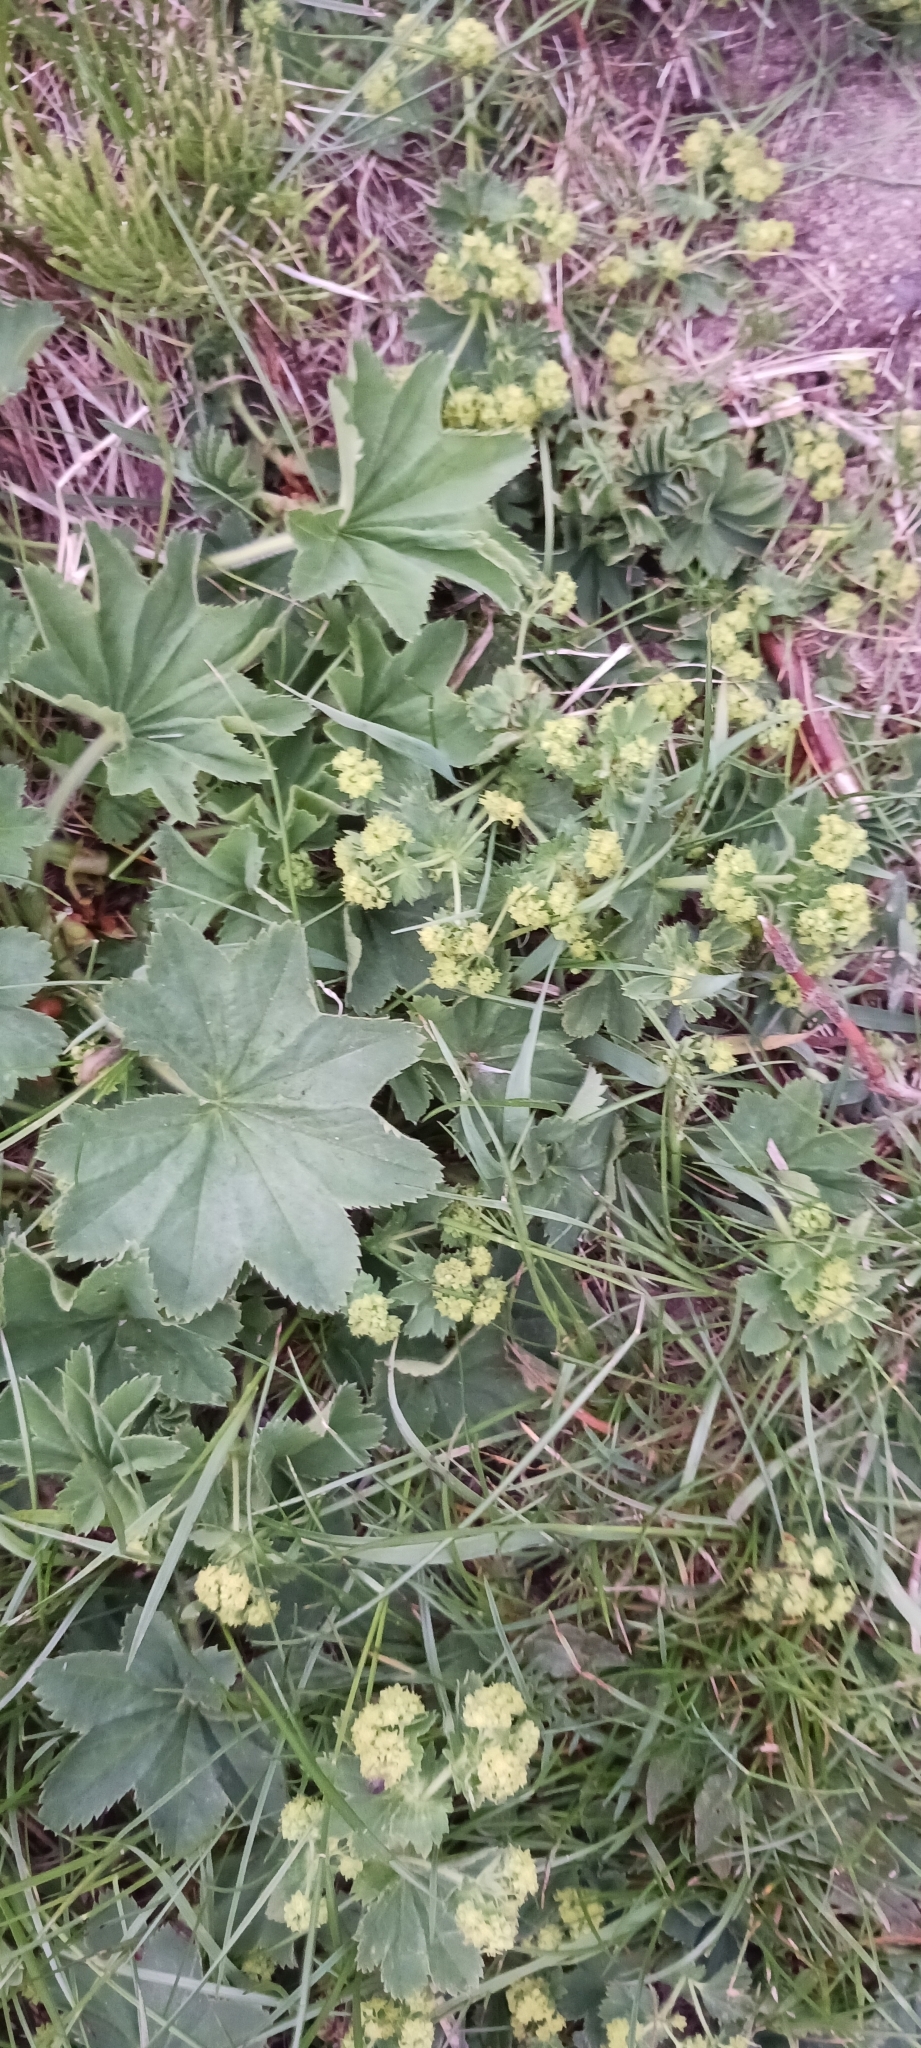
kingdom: Plantae
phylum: Tracheophyta
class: Magnoliopsida
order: Rosales
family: Rosaceae
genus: Alchemilla
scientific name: Alchemilla xanthochlora
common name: Intermediate lady's-mantle
